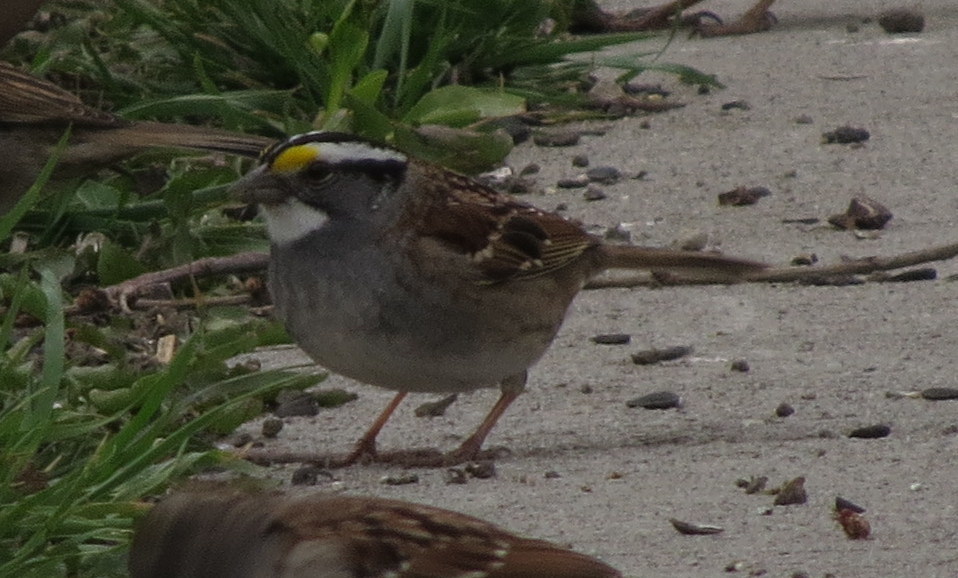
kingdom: Animalia
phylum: Chordata
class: Aves
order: Passeriformes
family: Passerellidae
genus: Zonotrichia
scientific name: Zonotrichia albicollis
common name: White-throated sparrow
